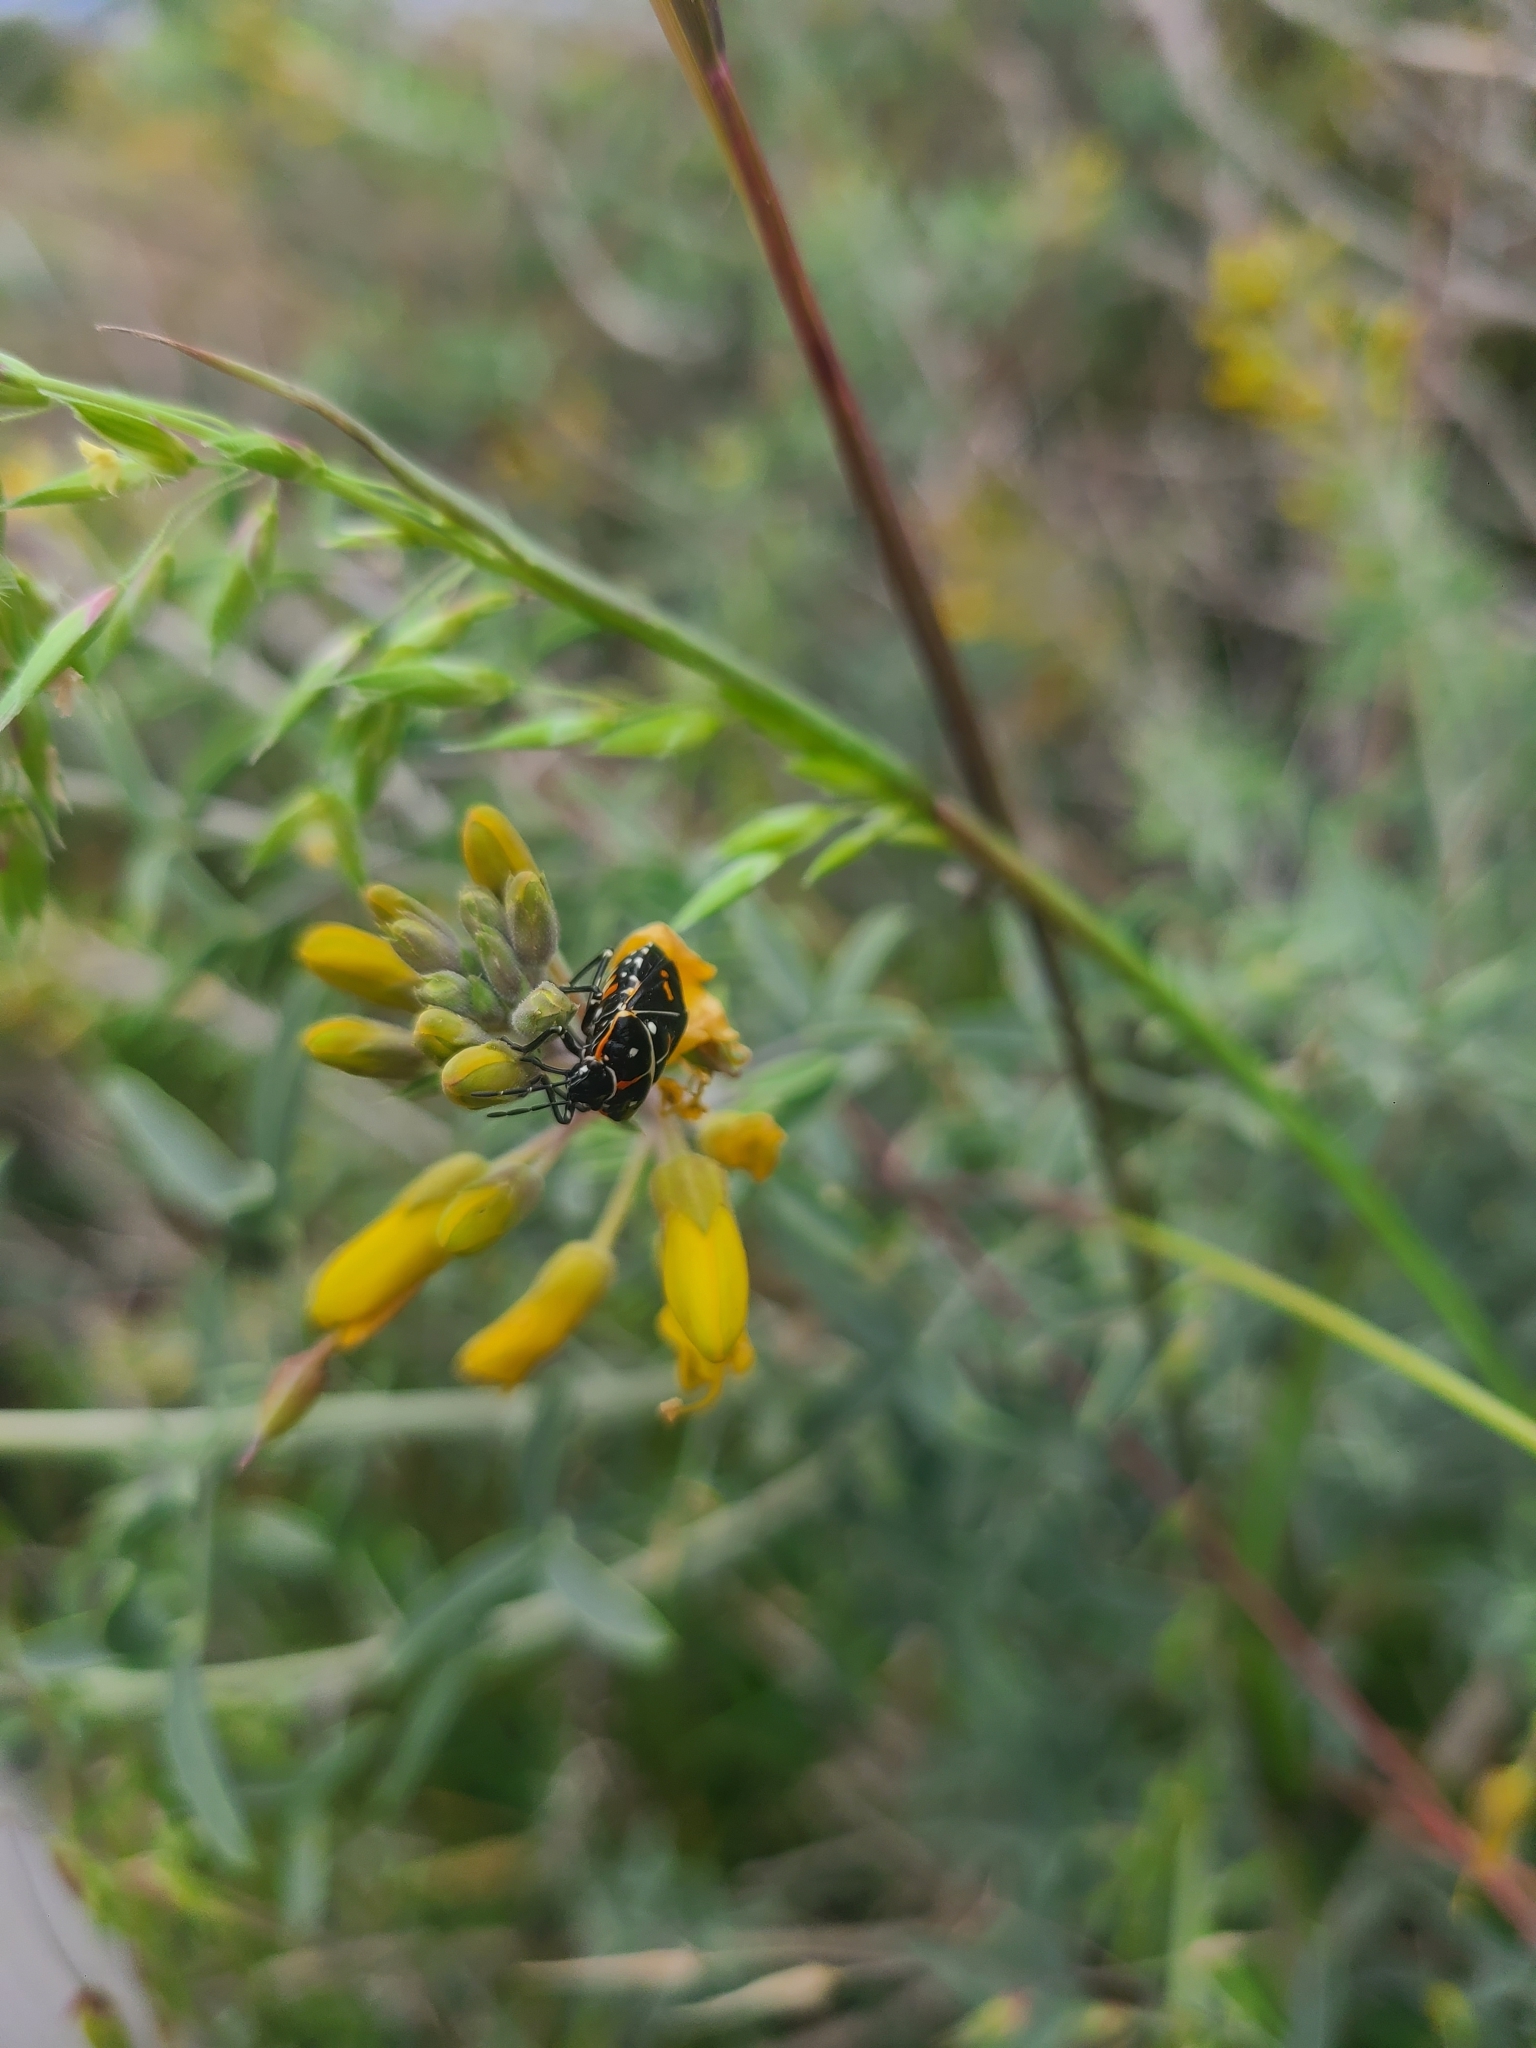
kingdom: Animalia
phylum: Arthropoda
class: Insecta
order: Hemiptera
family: Pentatomidae
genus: Murgantia
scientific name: Murgantia histrionica
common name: Harlequin bug
